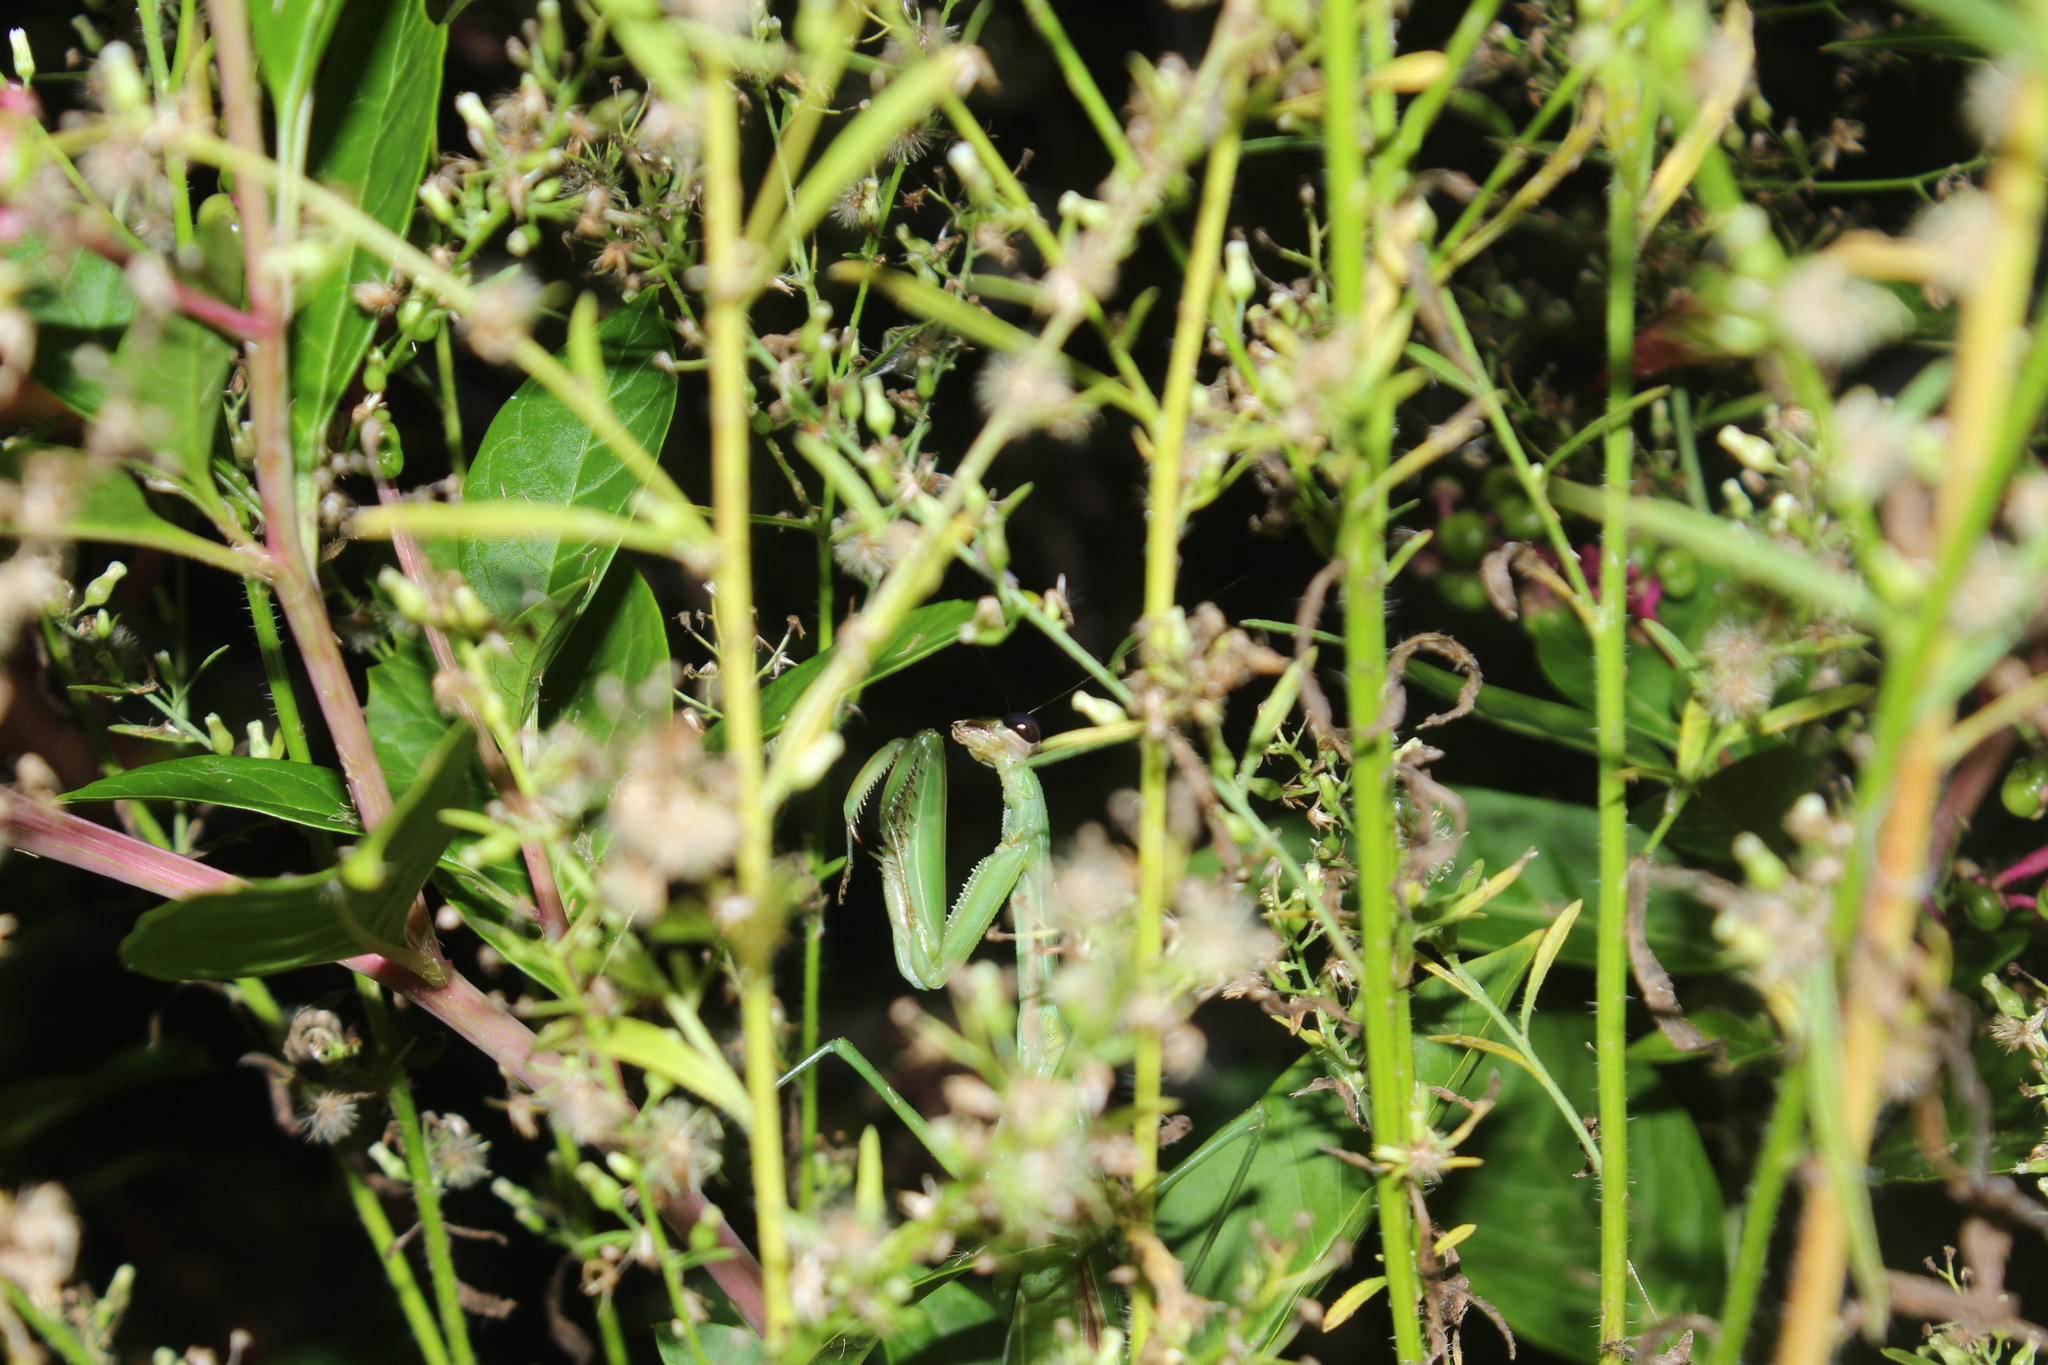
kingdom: Animalia
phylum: Arthropoda
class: Insecta
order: Mantodea
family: Mantidae
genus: Tenodera
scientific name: Tenodera sinensis
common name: Chinese mantis
